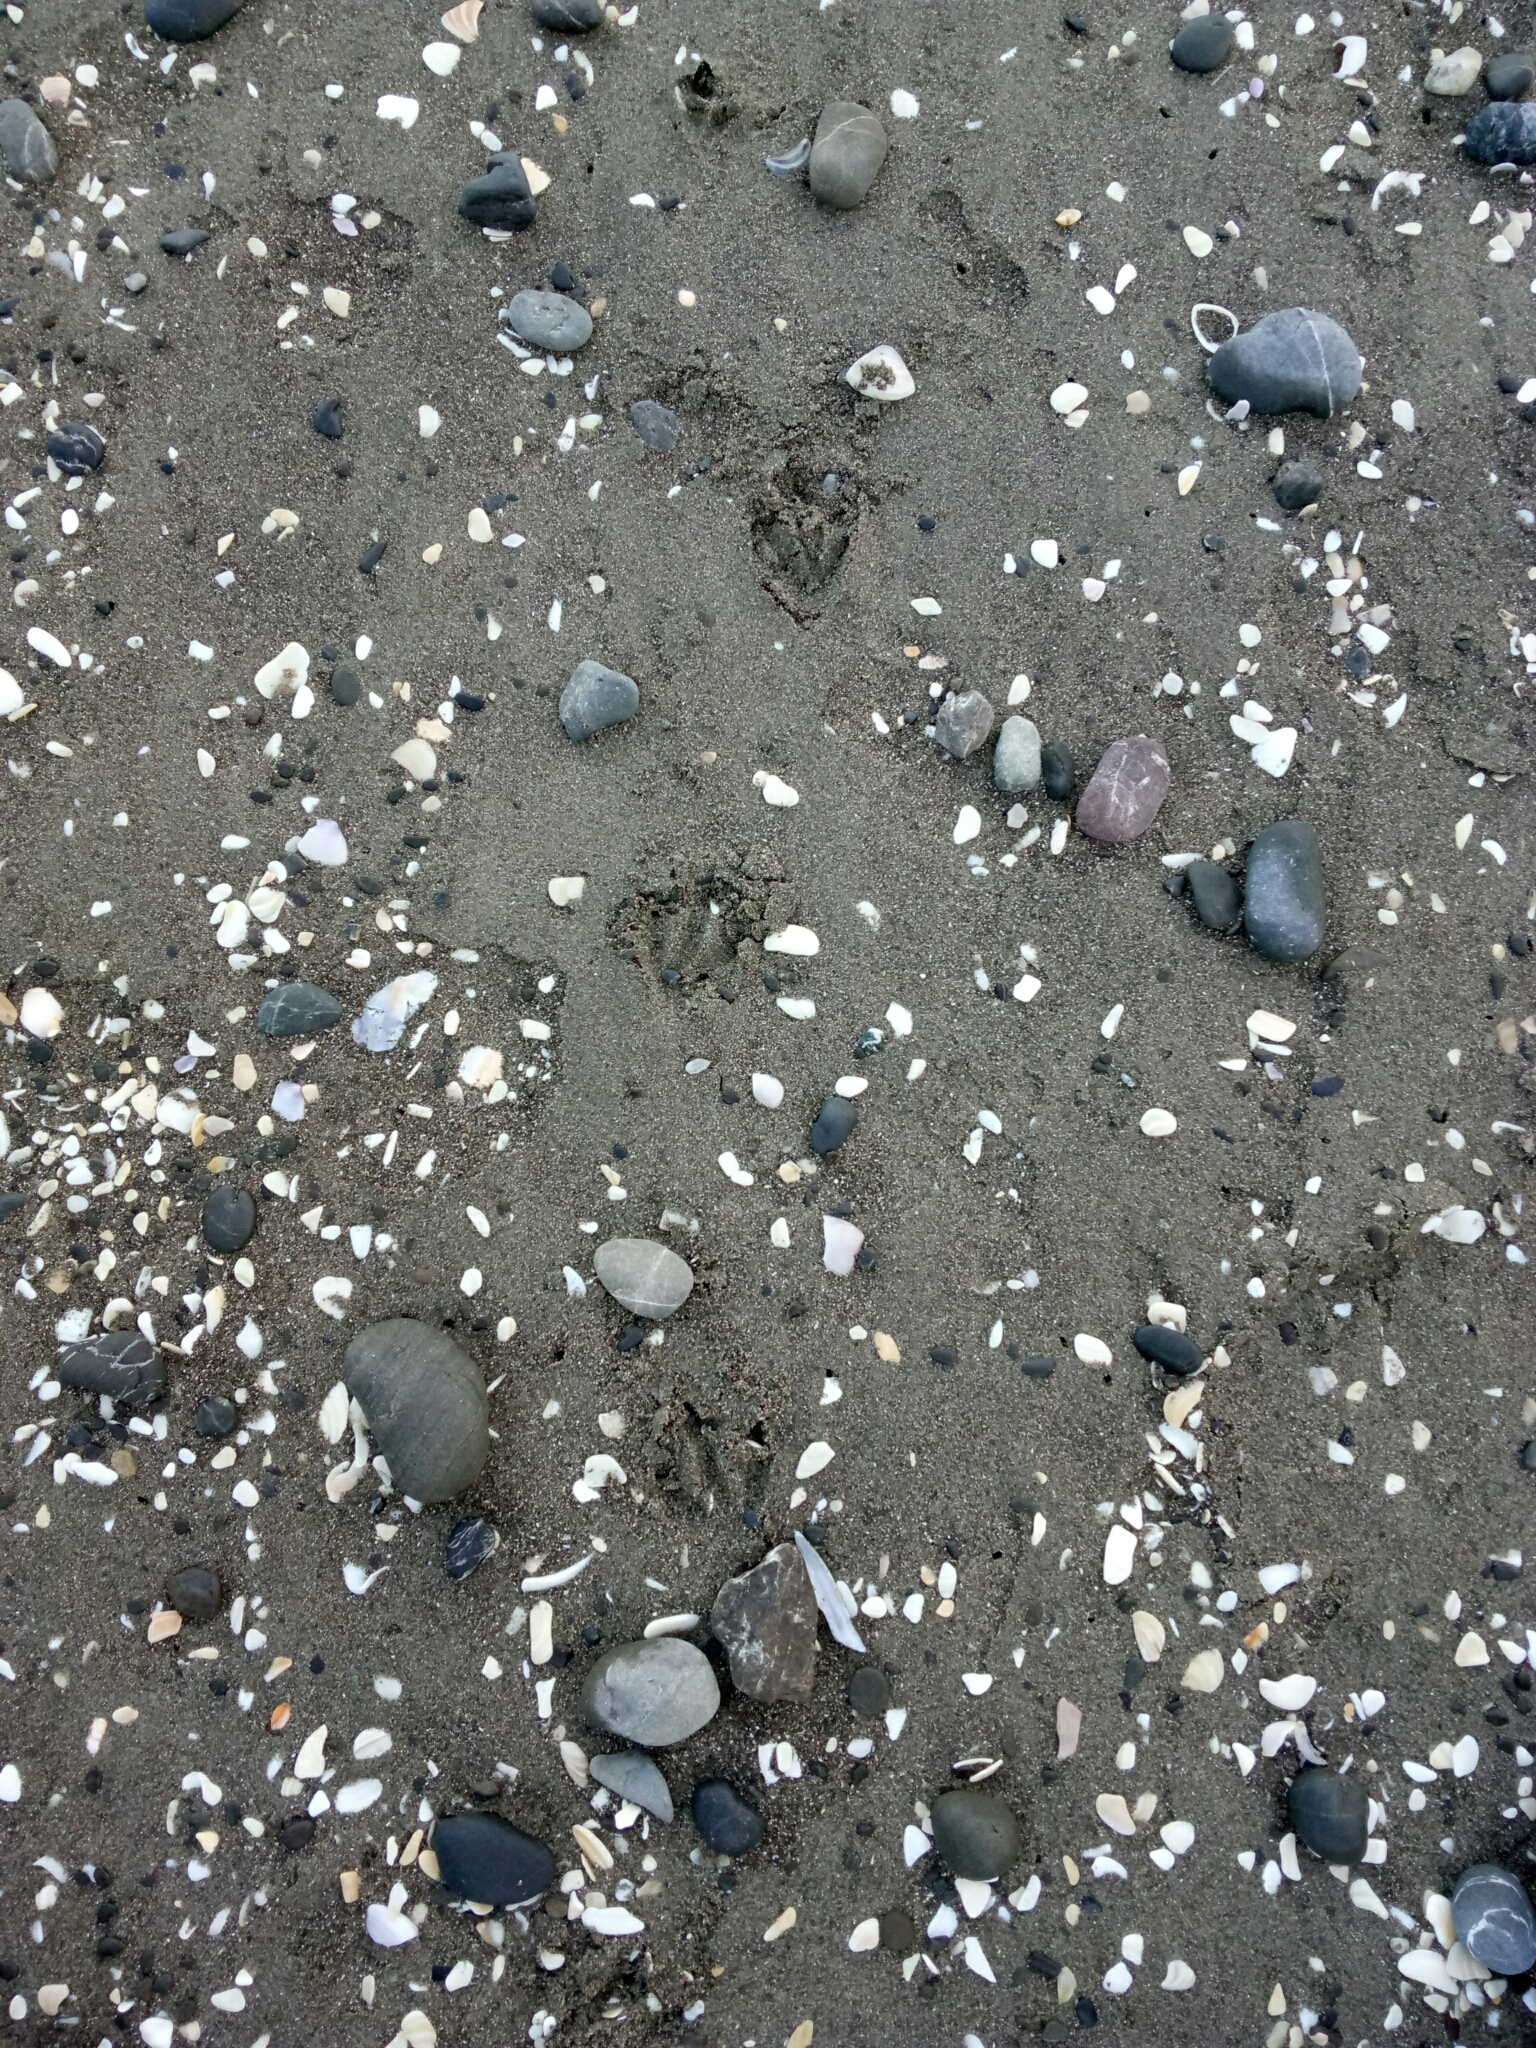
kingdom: Animalia
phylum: Chordata
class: Aves
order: Sphenisciformes
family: Spheniscidae
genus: Eudyptula
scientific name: Eudyptula minor
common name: Little penguin
